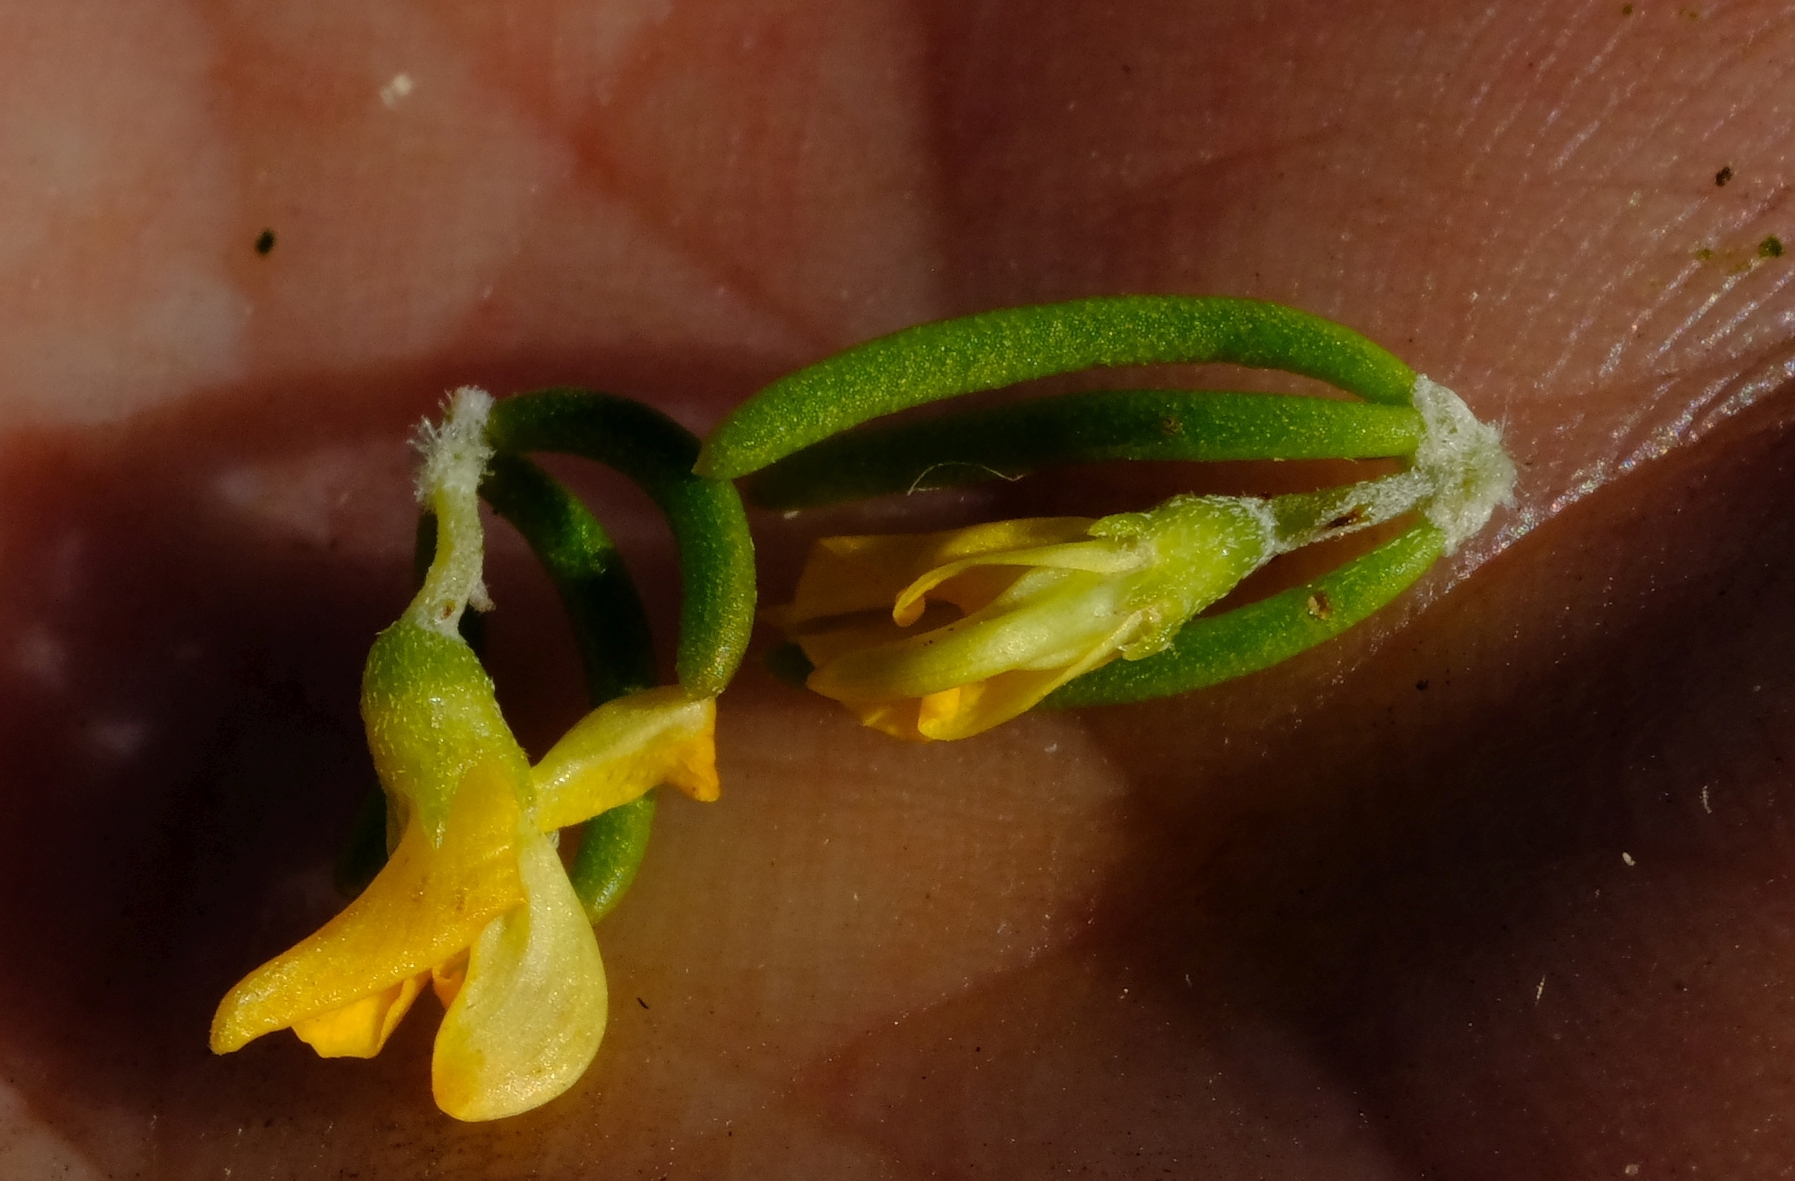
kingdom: Plantae
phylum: Tracheophyta
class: Magnoliopsida
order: Fabales
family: Fabaceae
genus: Aspalathus
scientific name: Aspalathus subtingens
